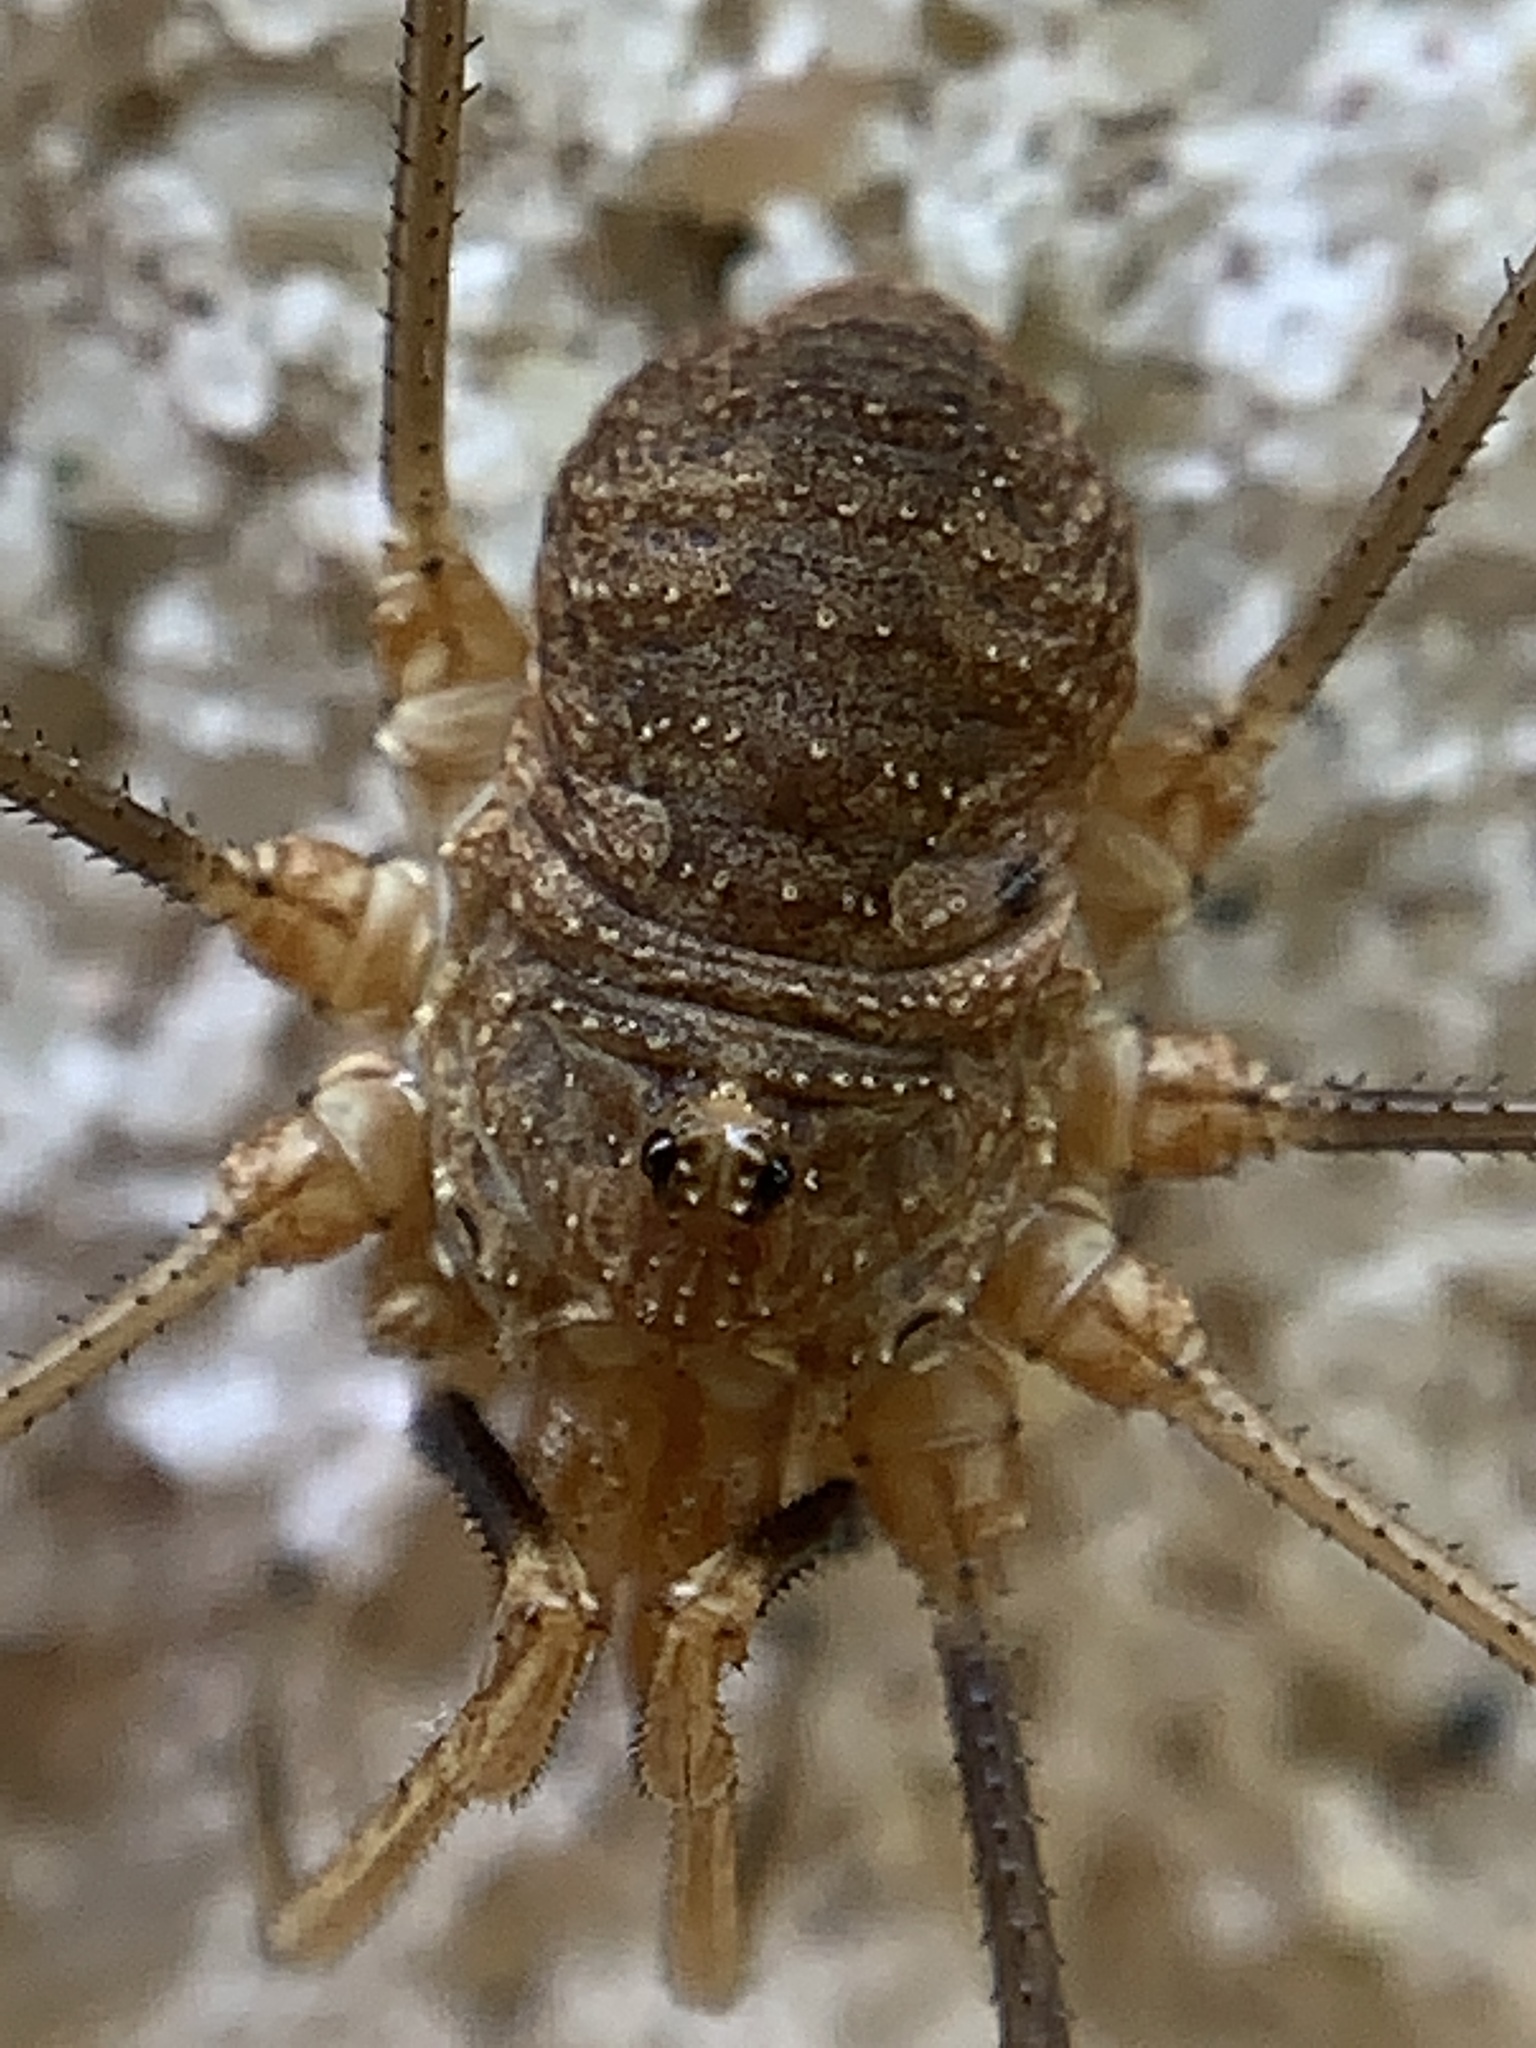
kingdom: Animalia
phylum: Arthropoda
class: Arachnida
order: Opiliones
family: Phalangiidae
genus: Phalangium
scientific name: Phalangium opilio
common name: Daddy longleg
